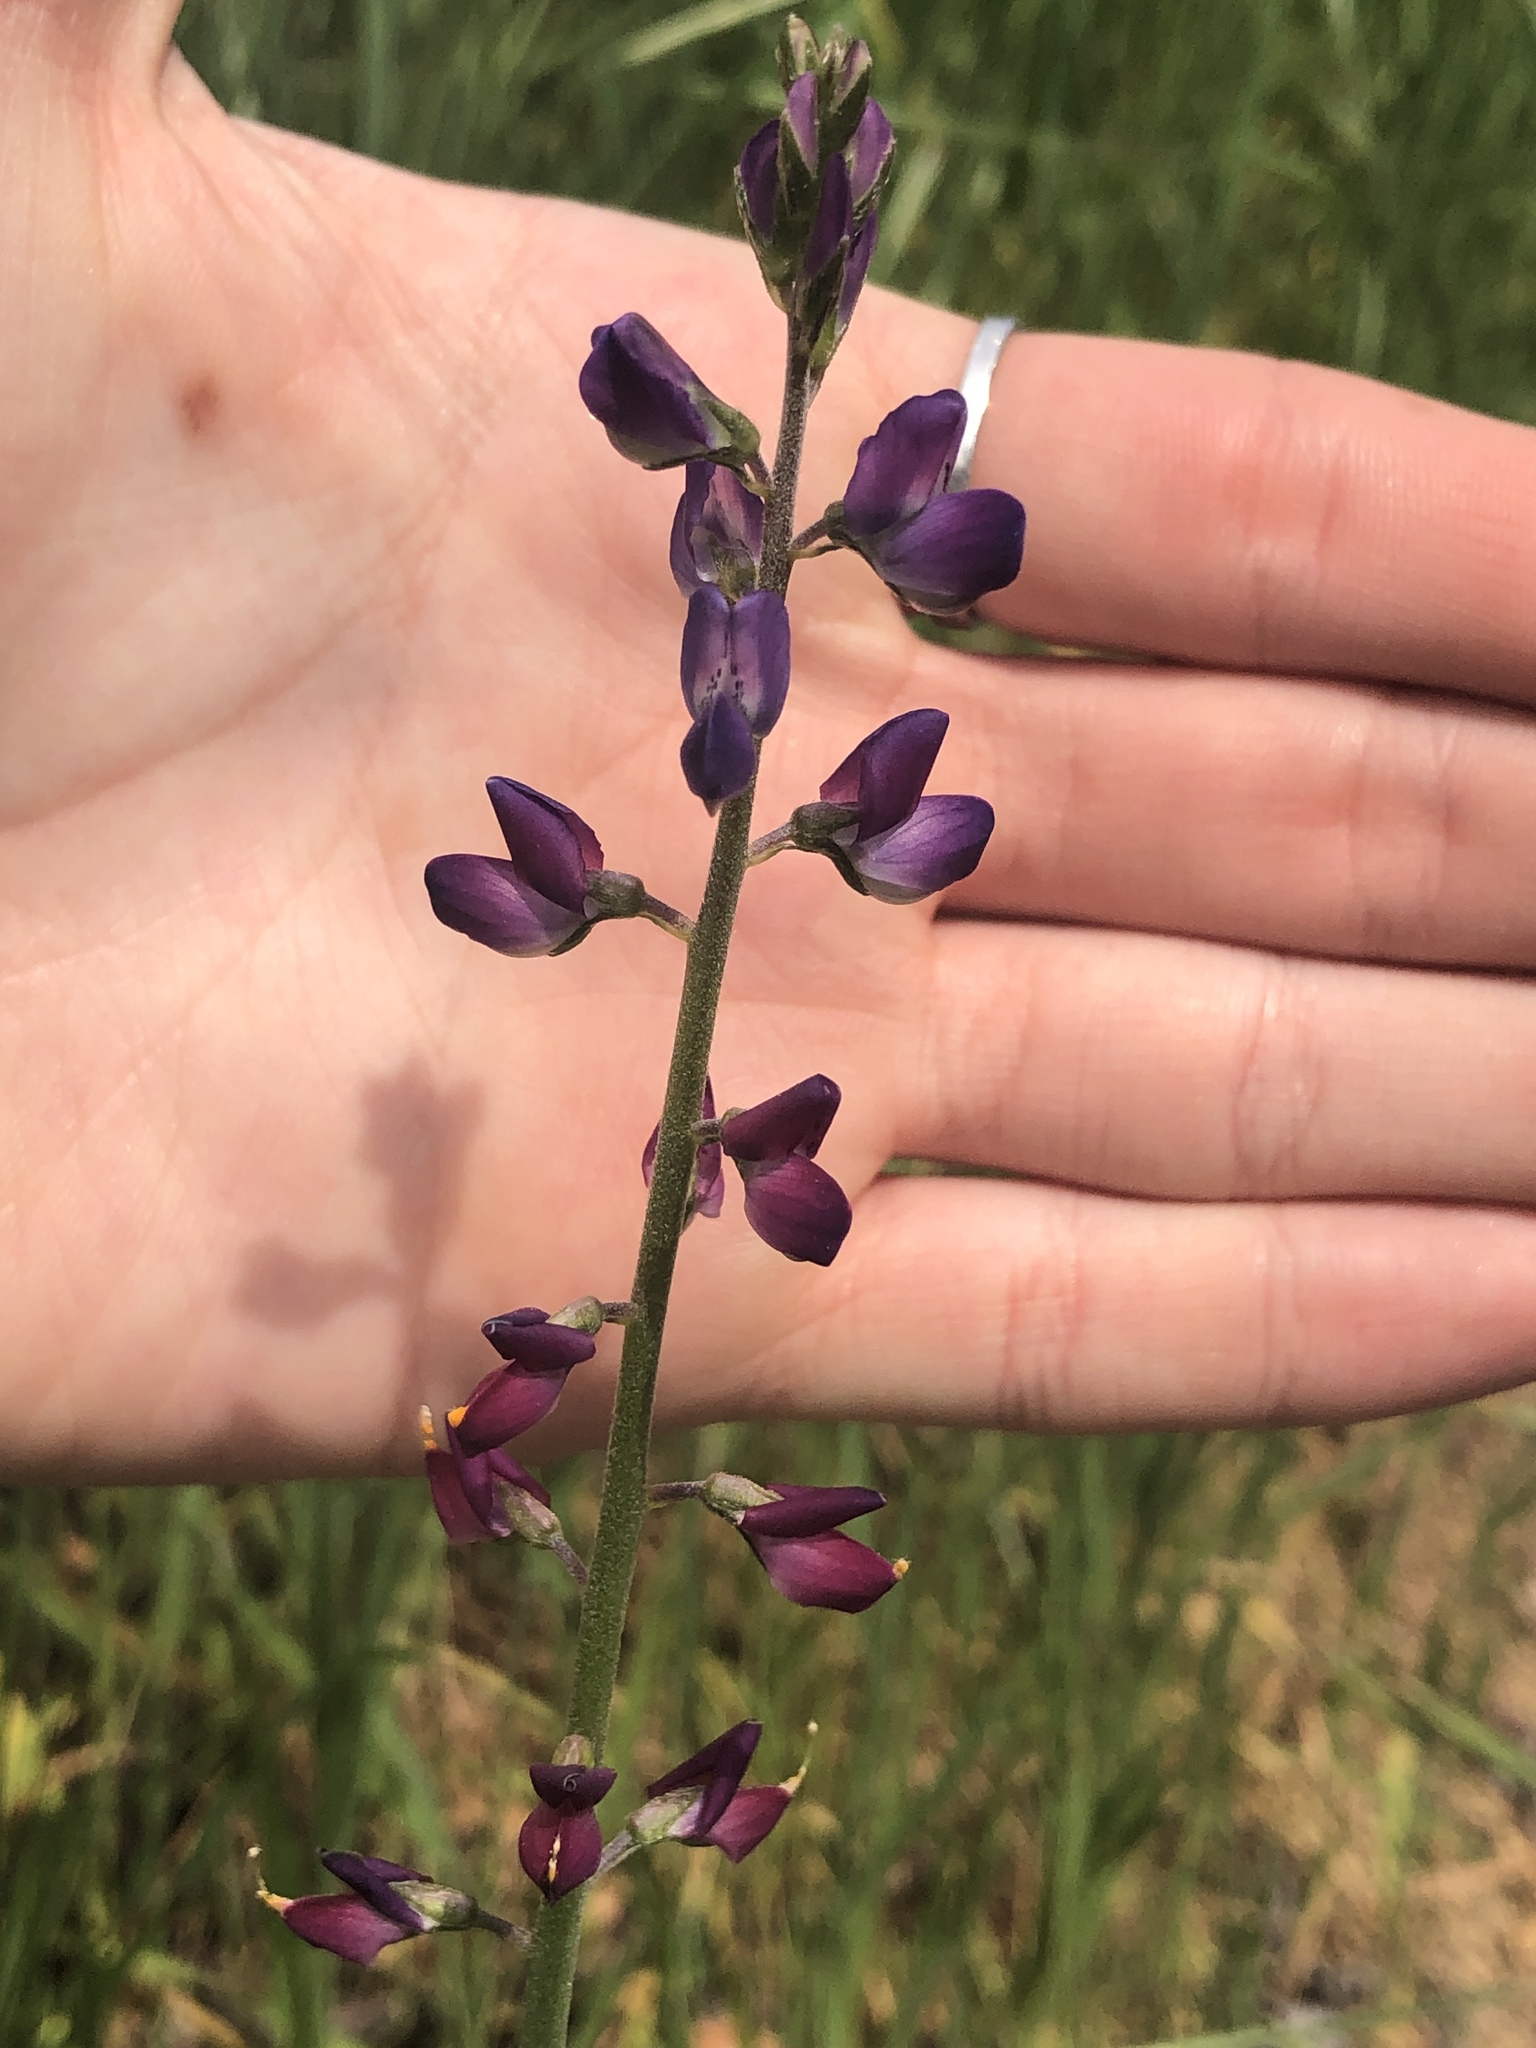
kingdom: Plantae
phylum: Tracheophyta
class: Magnoliopsida
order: Fabales
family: Fabaceae
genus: Lupinus
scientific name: Lupinus truncatus
